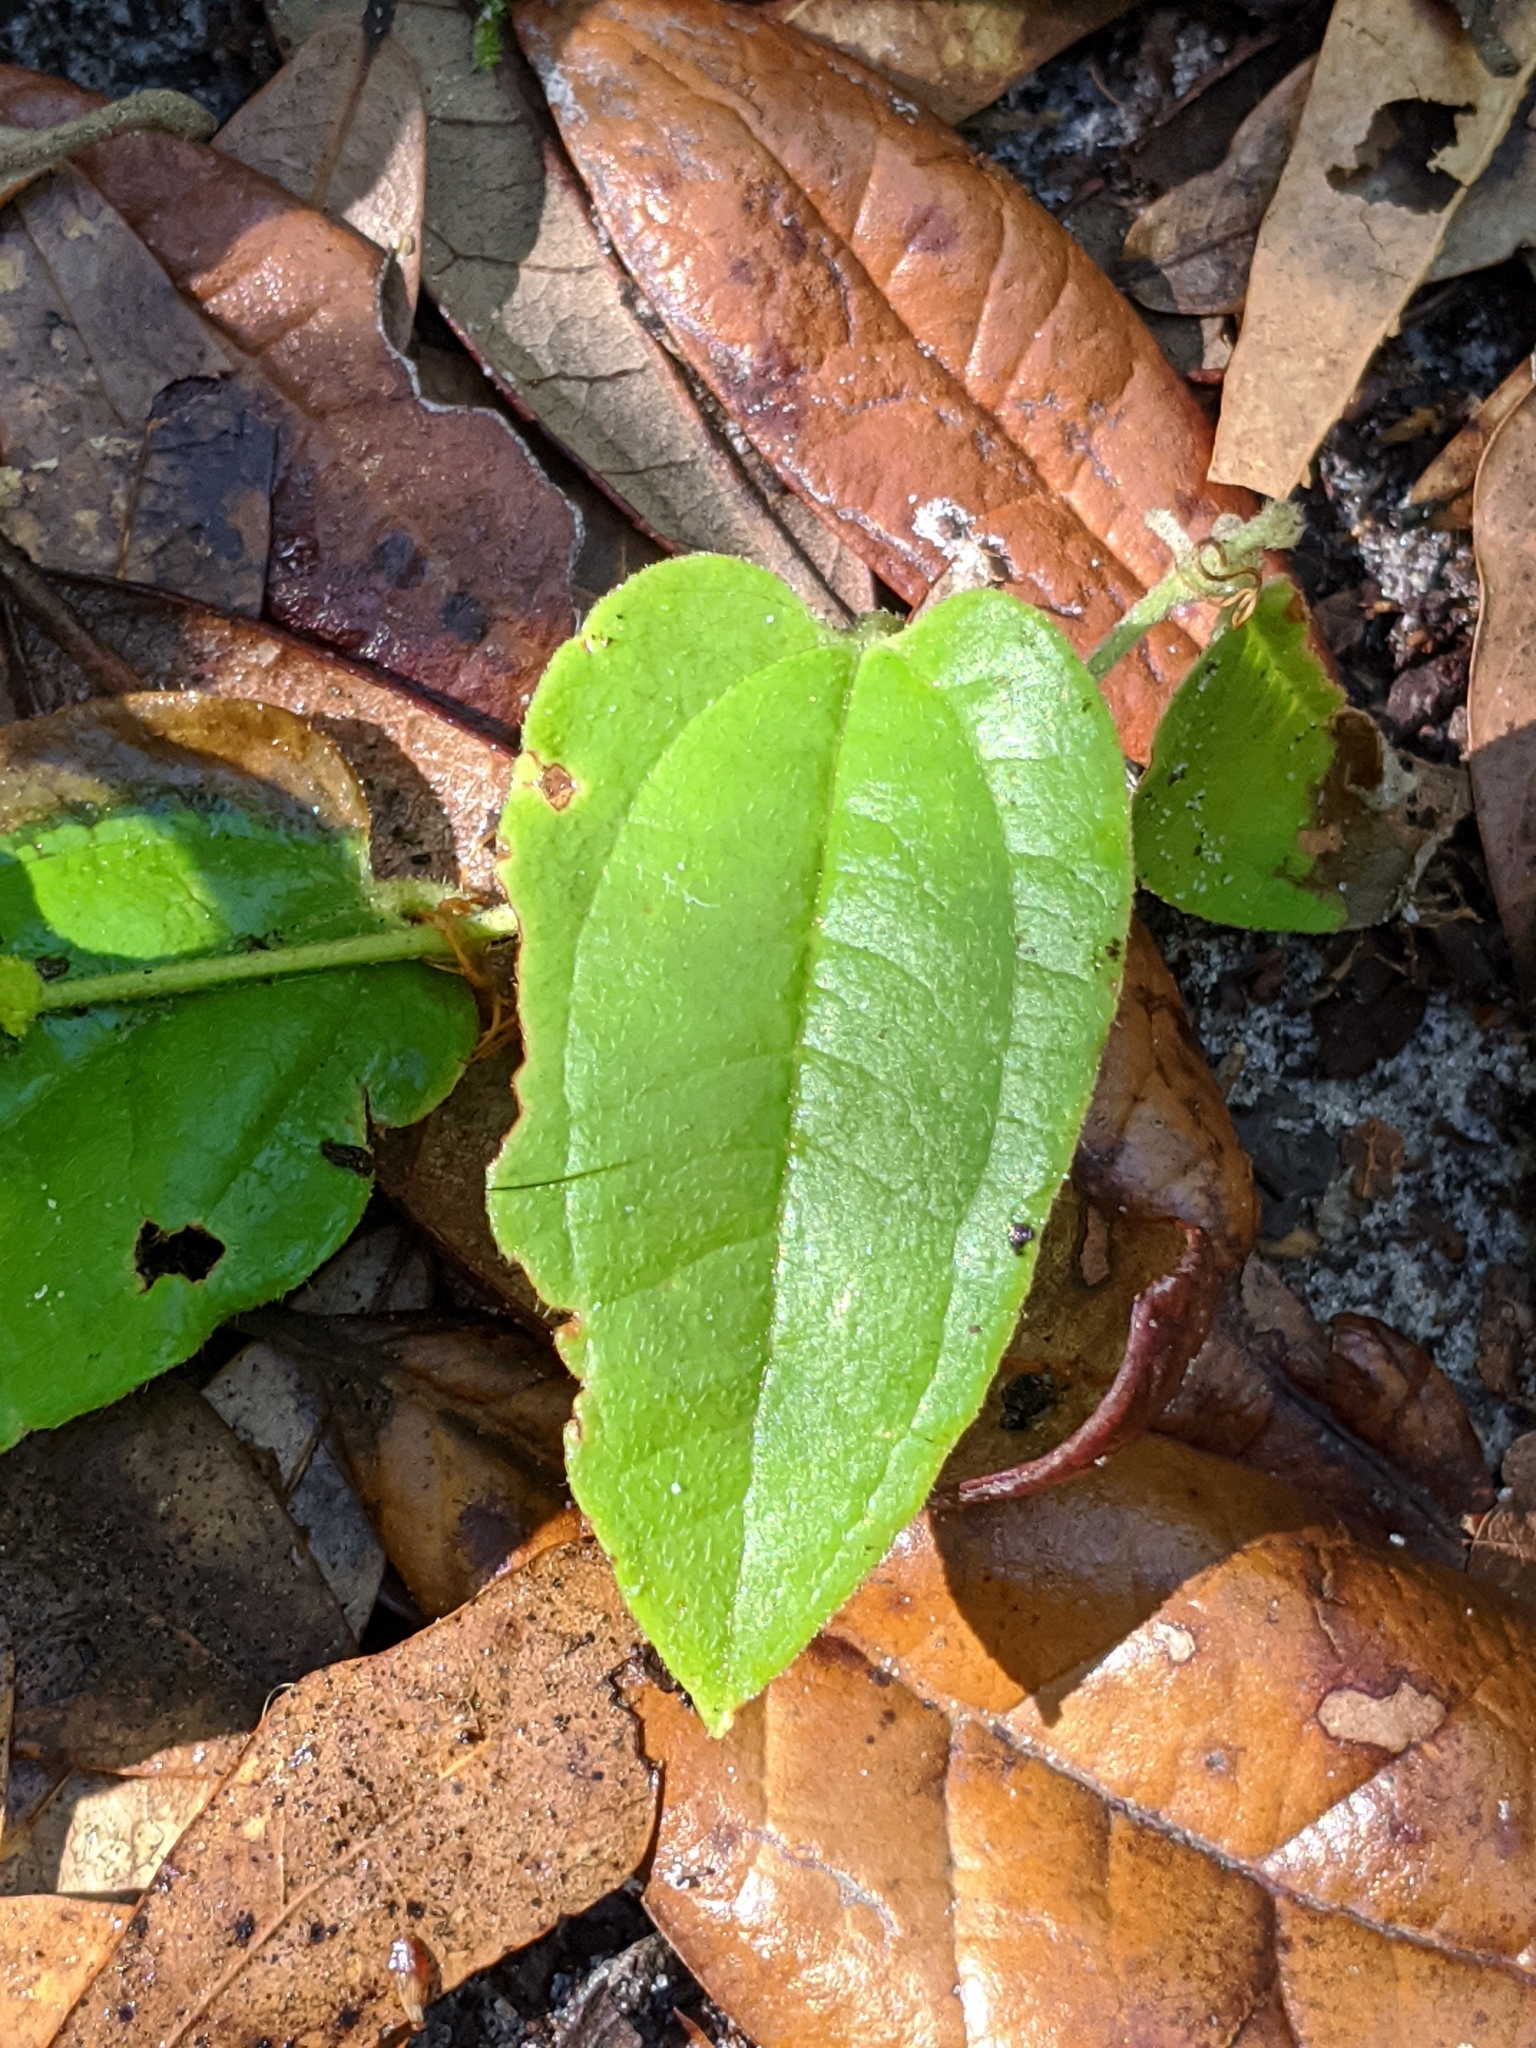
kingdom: Plantae
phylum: Tracheophyta
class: Liliopsida
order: Liliales
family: Smilacaceae
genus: Smilax
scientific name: Smilax pumila
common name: Sarsaparilla-vine
